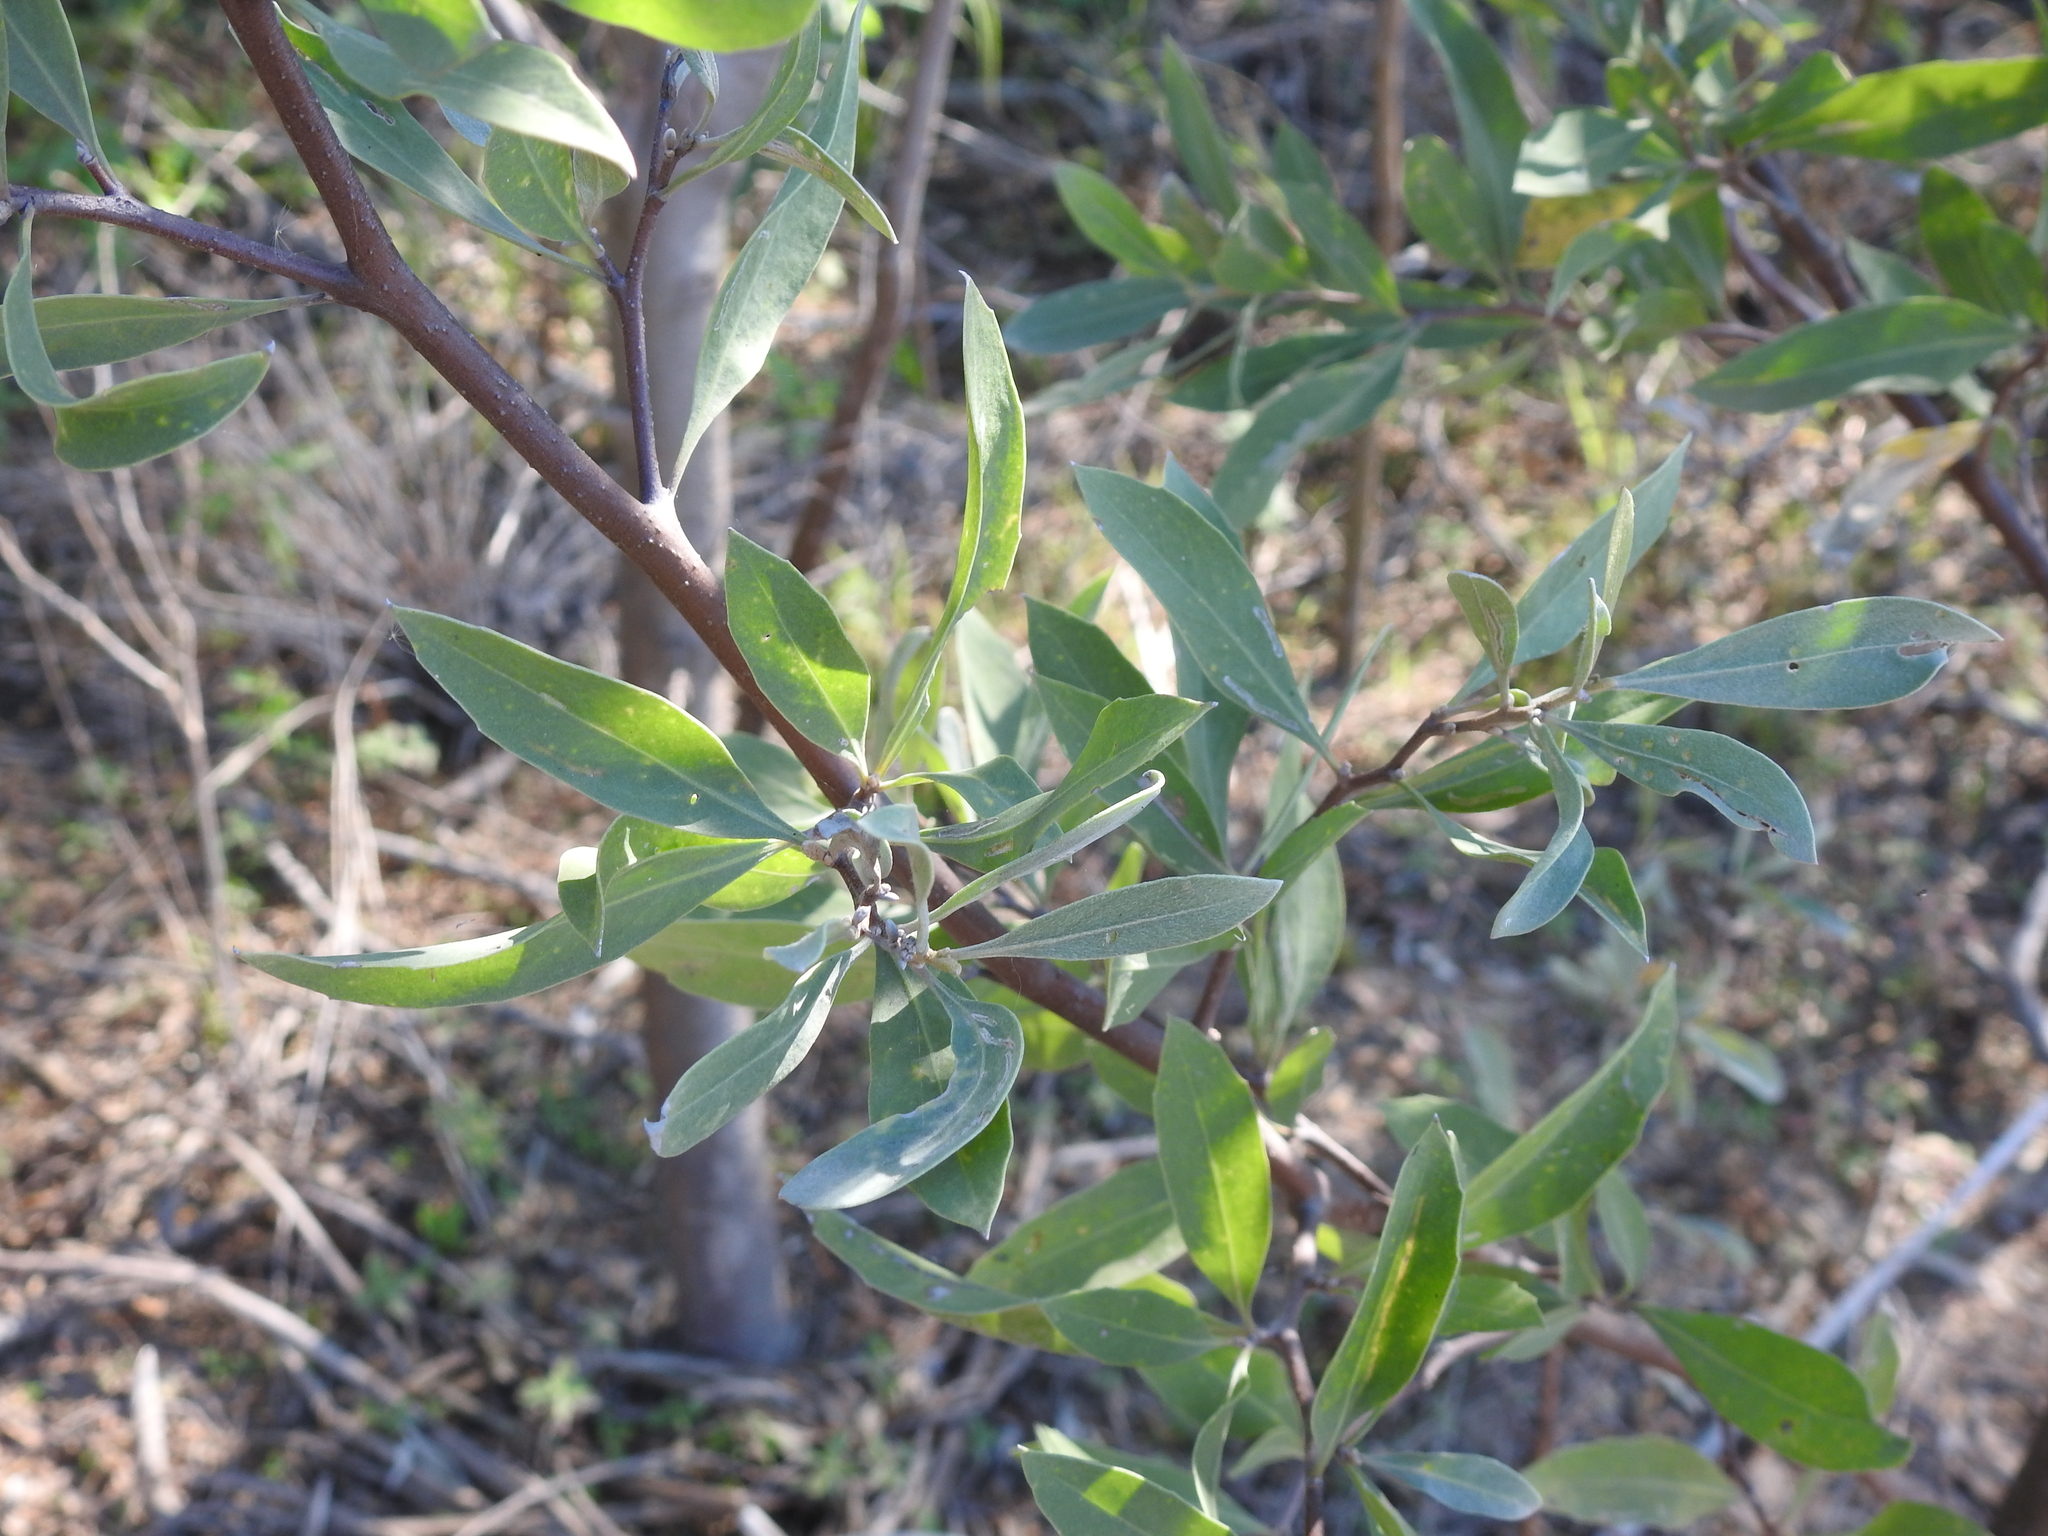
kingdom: Plantae
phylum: Tracheophyta
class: Magnoliopsida
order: Asterales
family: Asteraceae
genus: Tessaria
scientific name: Tessaria integrifolia
